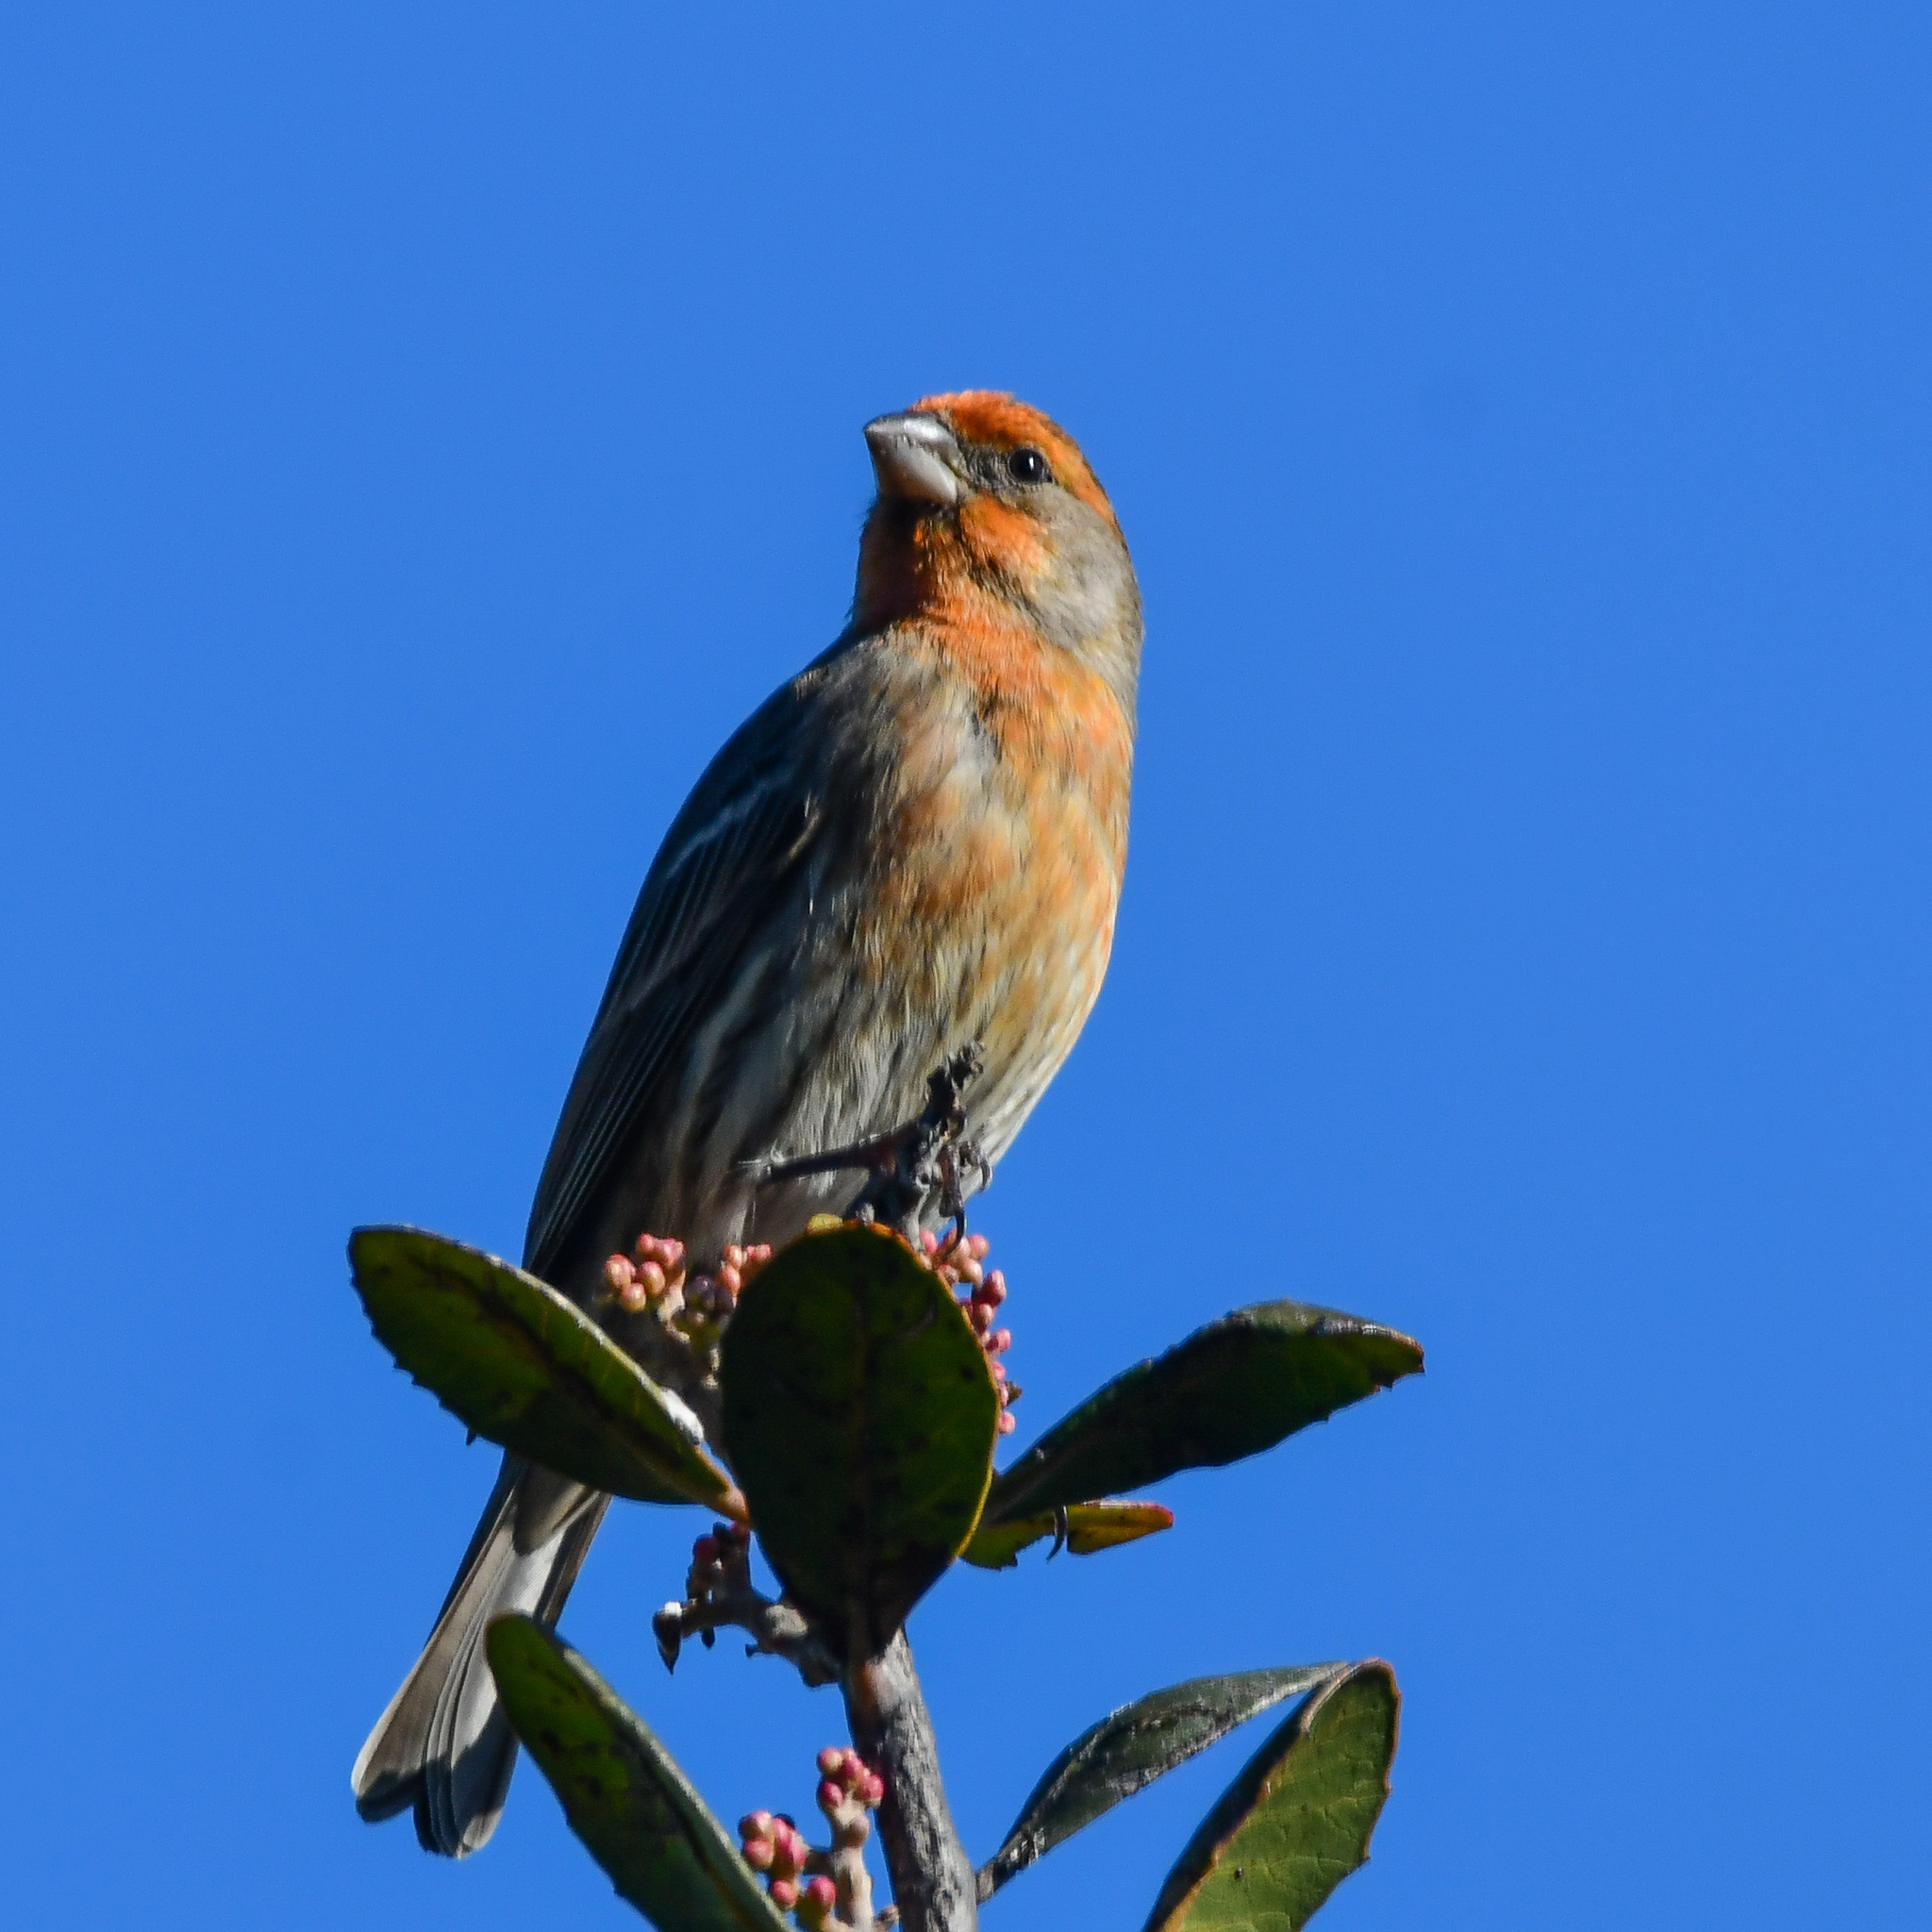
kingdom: Animalia
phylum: Chordata
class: Aves
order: Passeriformes
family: Fringillidae
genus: Haemorhous
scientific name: Haemorhous mexicanus
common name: House finch
